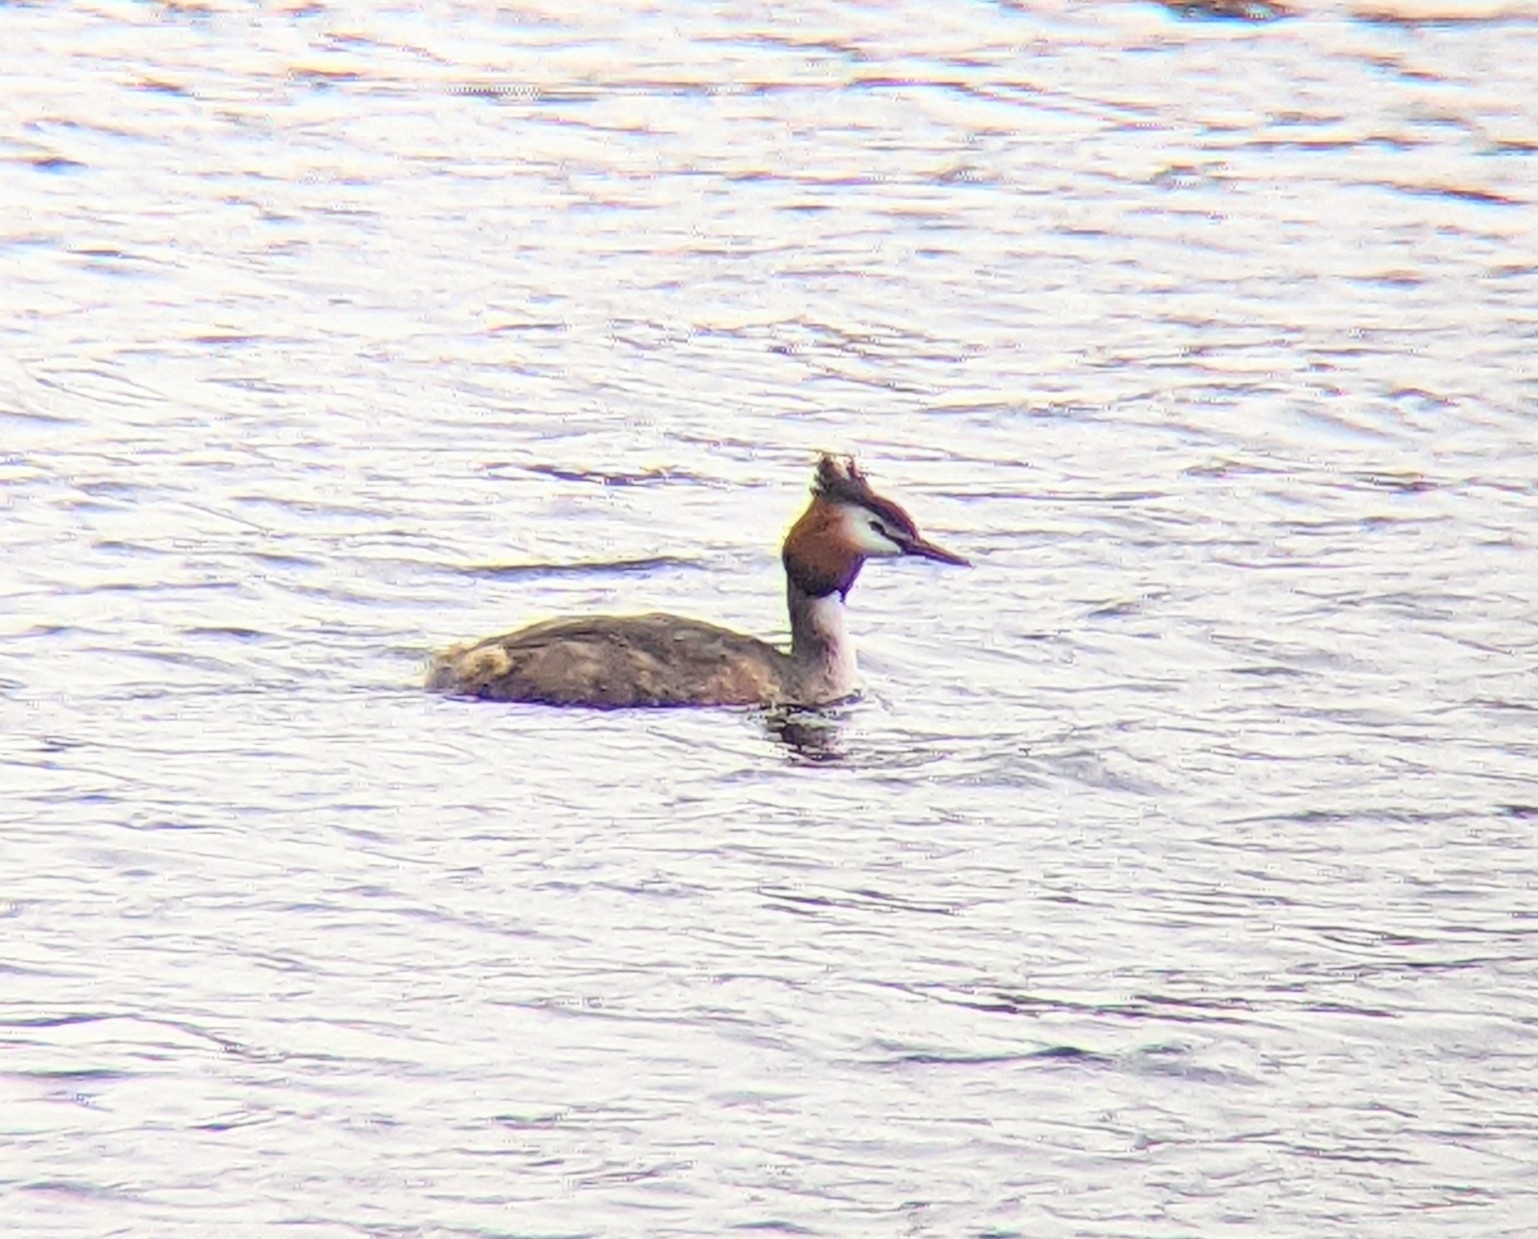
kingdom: Animalia
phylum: Chordata
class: Aves
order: Podicipediformes
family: Podicipedidae
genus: Podiceps
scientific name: Podiceps cristatus
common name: Great crested grebe
